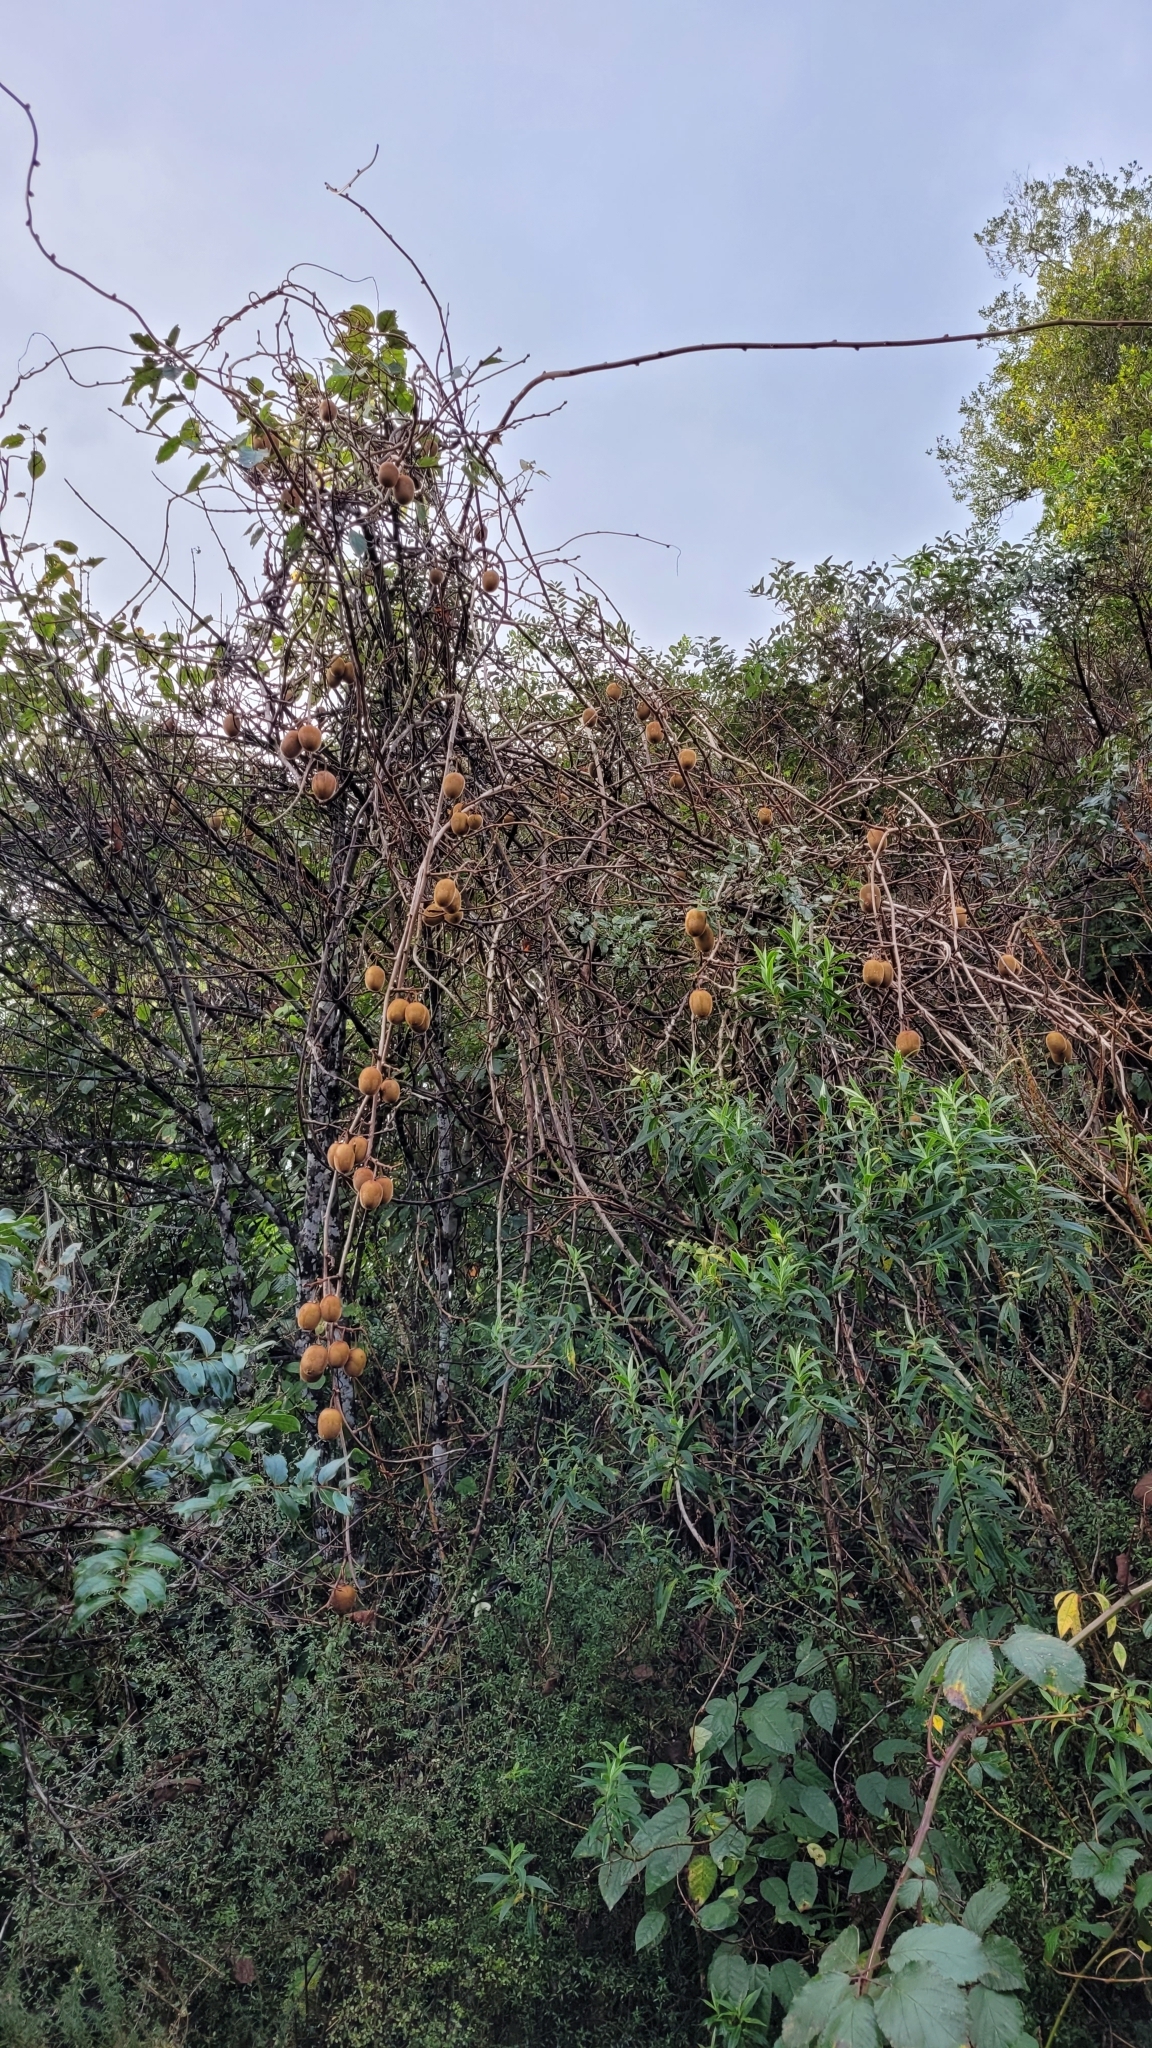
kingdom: Plantae
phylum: Tracheophyta
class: Magnoliopsida
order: Ericales
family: Actinidiaceae
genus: Actinidia
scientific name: Actinidia chinensis
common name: Kiwi
